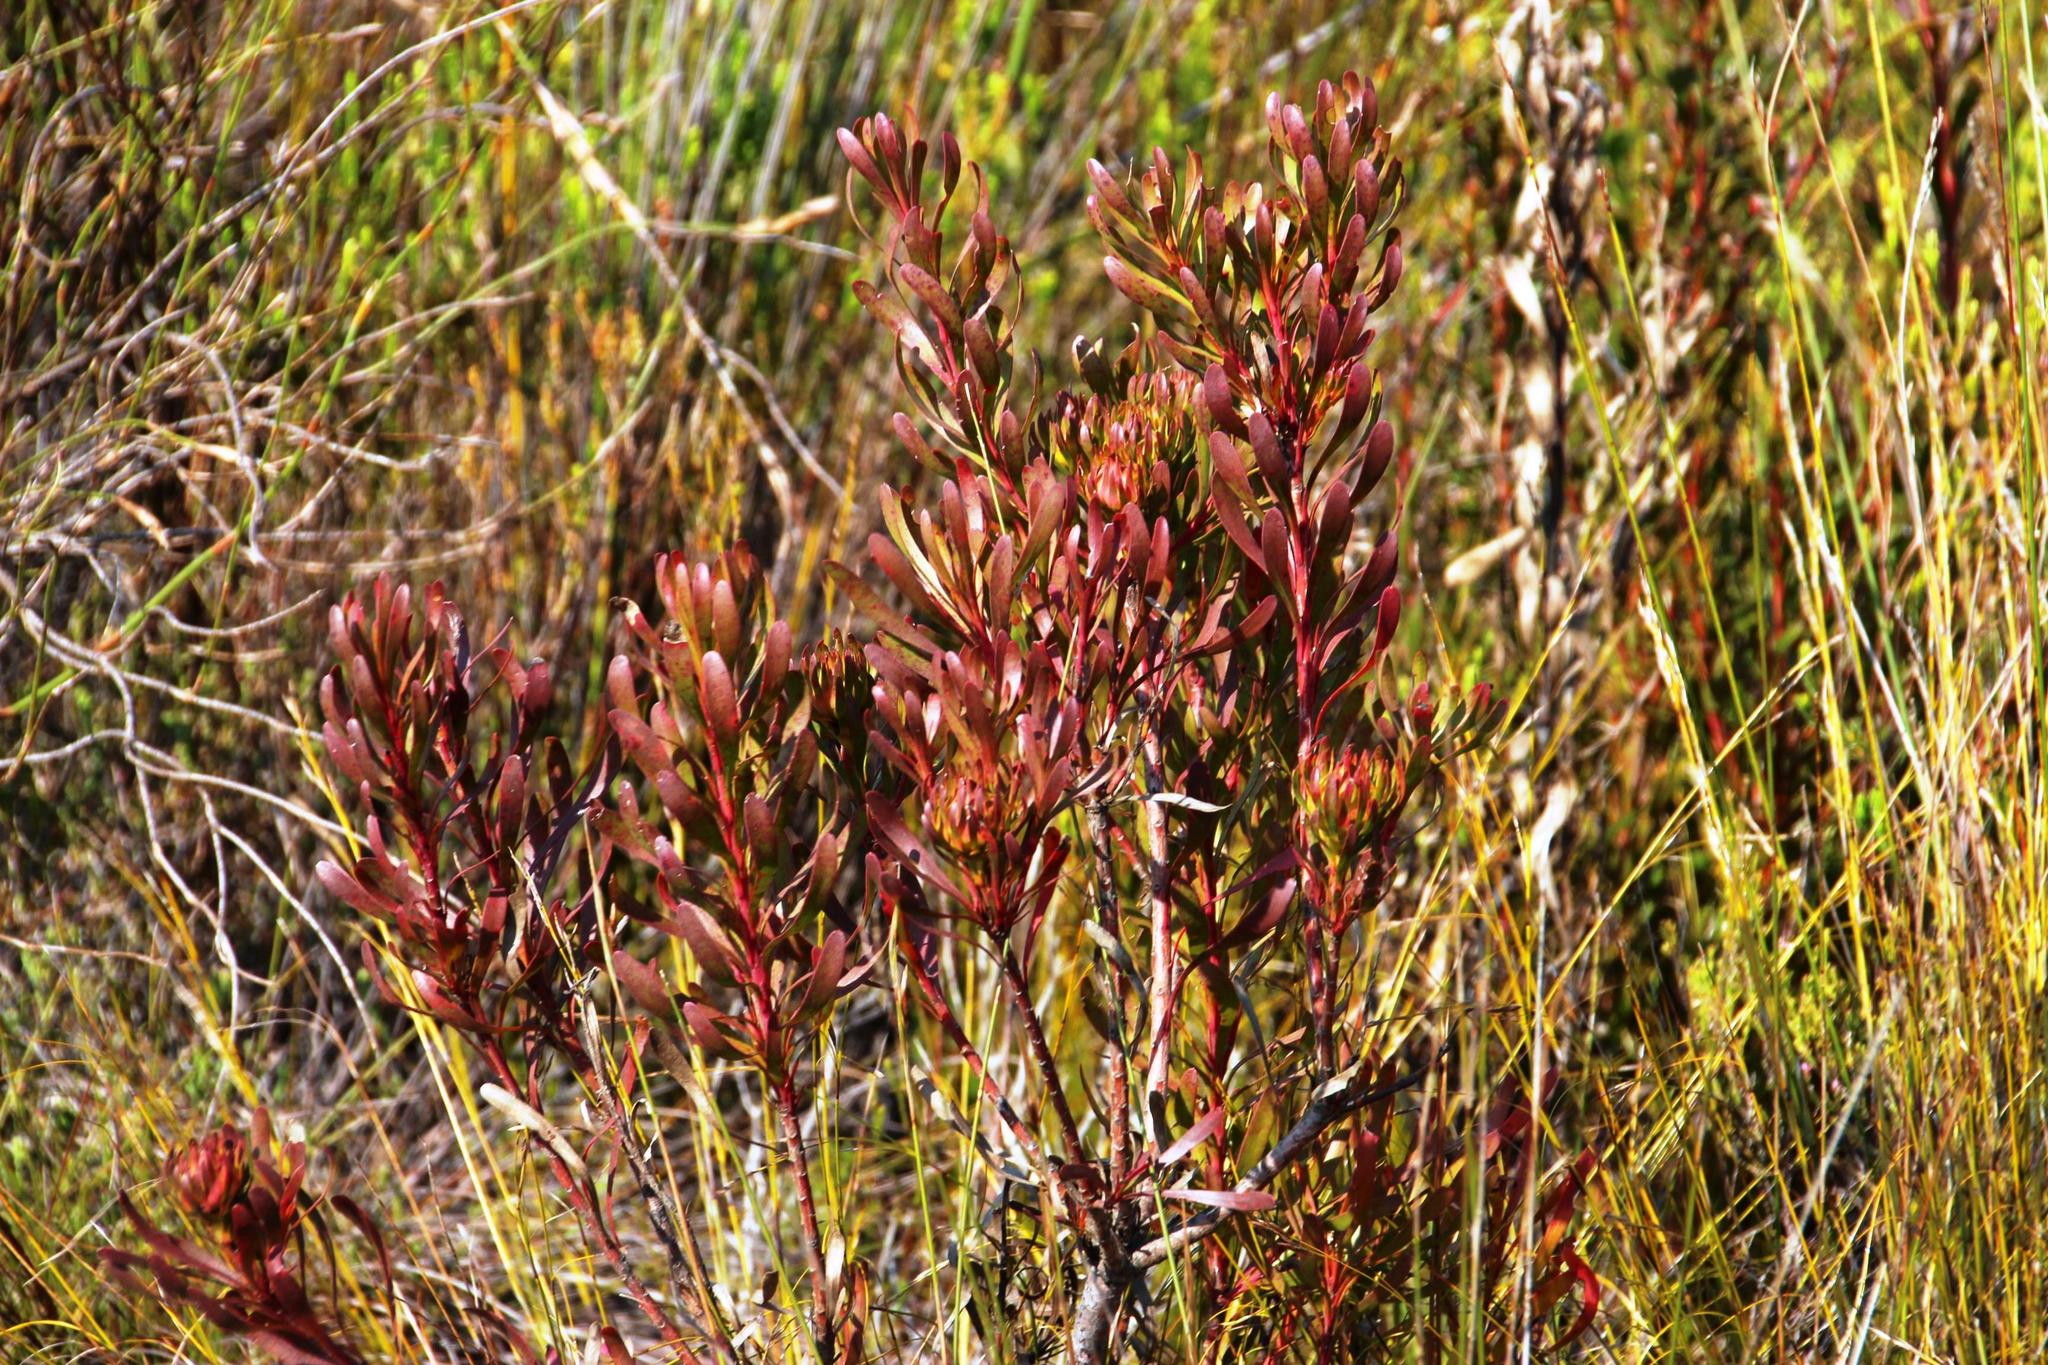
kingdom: Plantae
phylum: Tracheophyta
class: Magnoliopsida
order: Proteales
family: Proteaceae
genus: Aulax
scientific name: Aulax umbellata
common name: Broad-leaf featherbush
